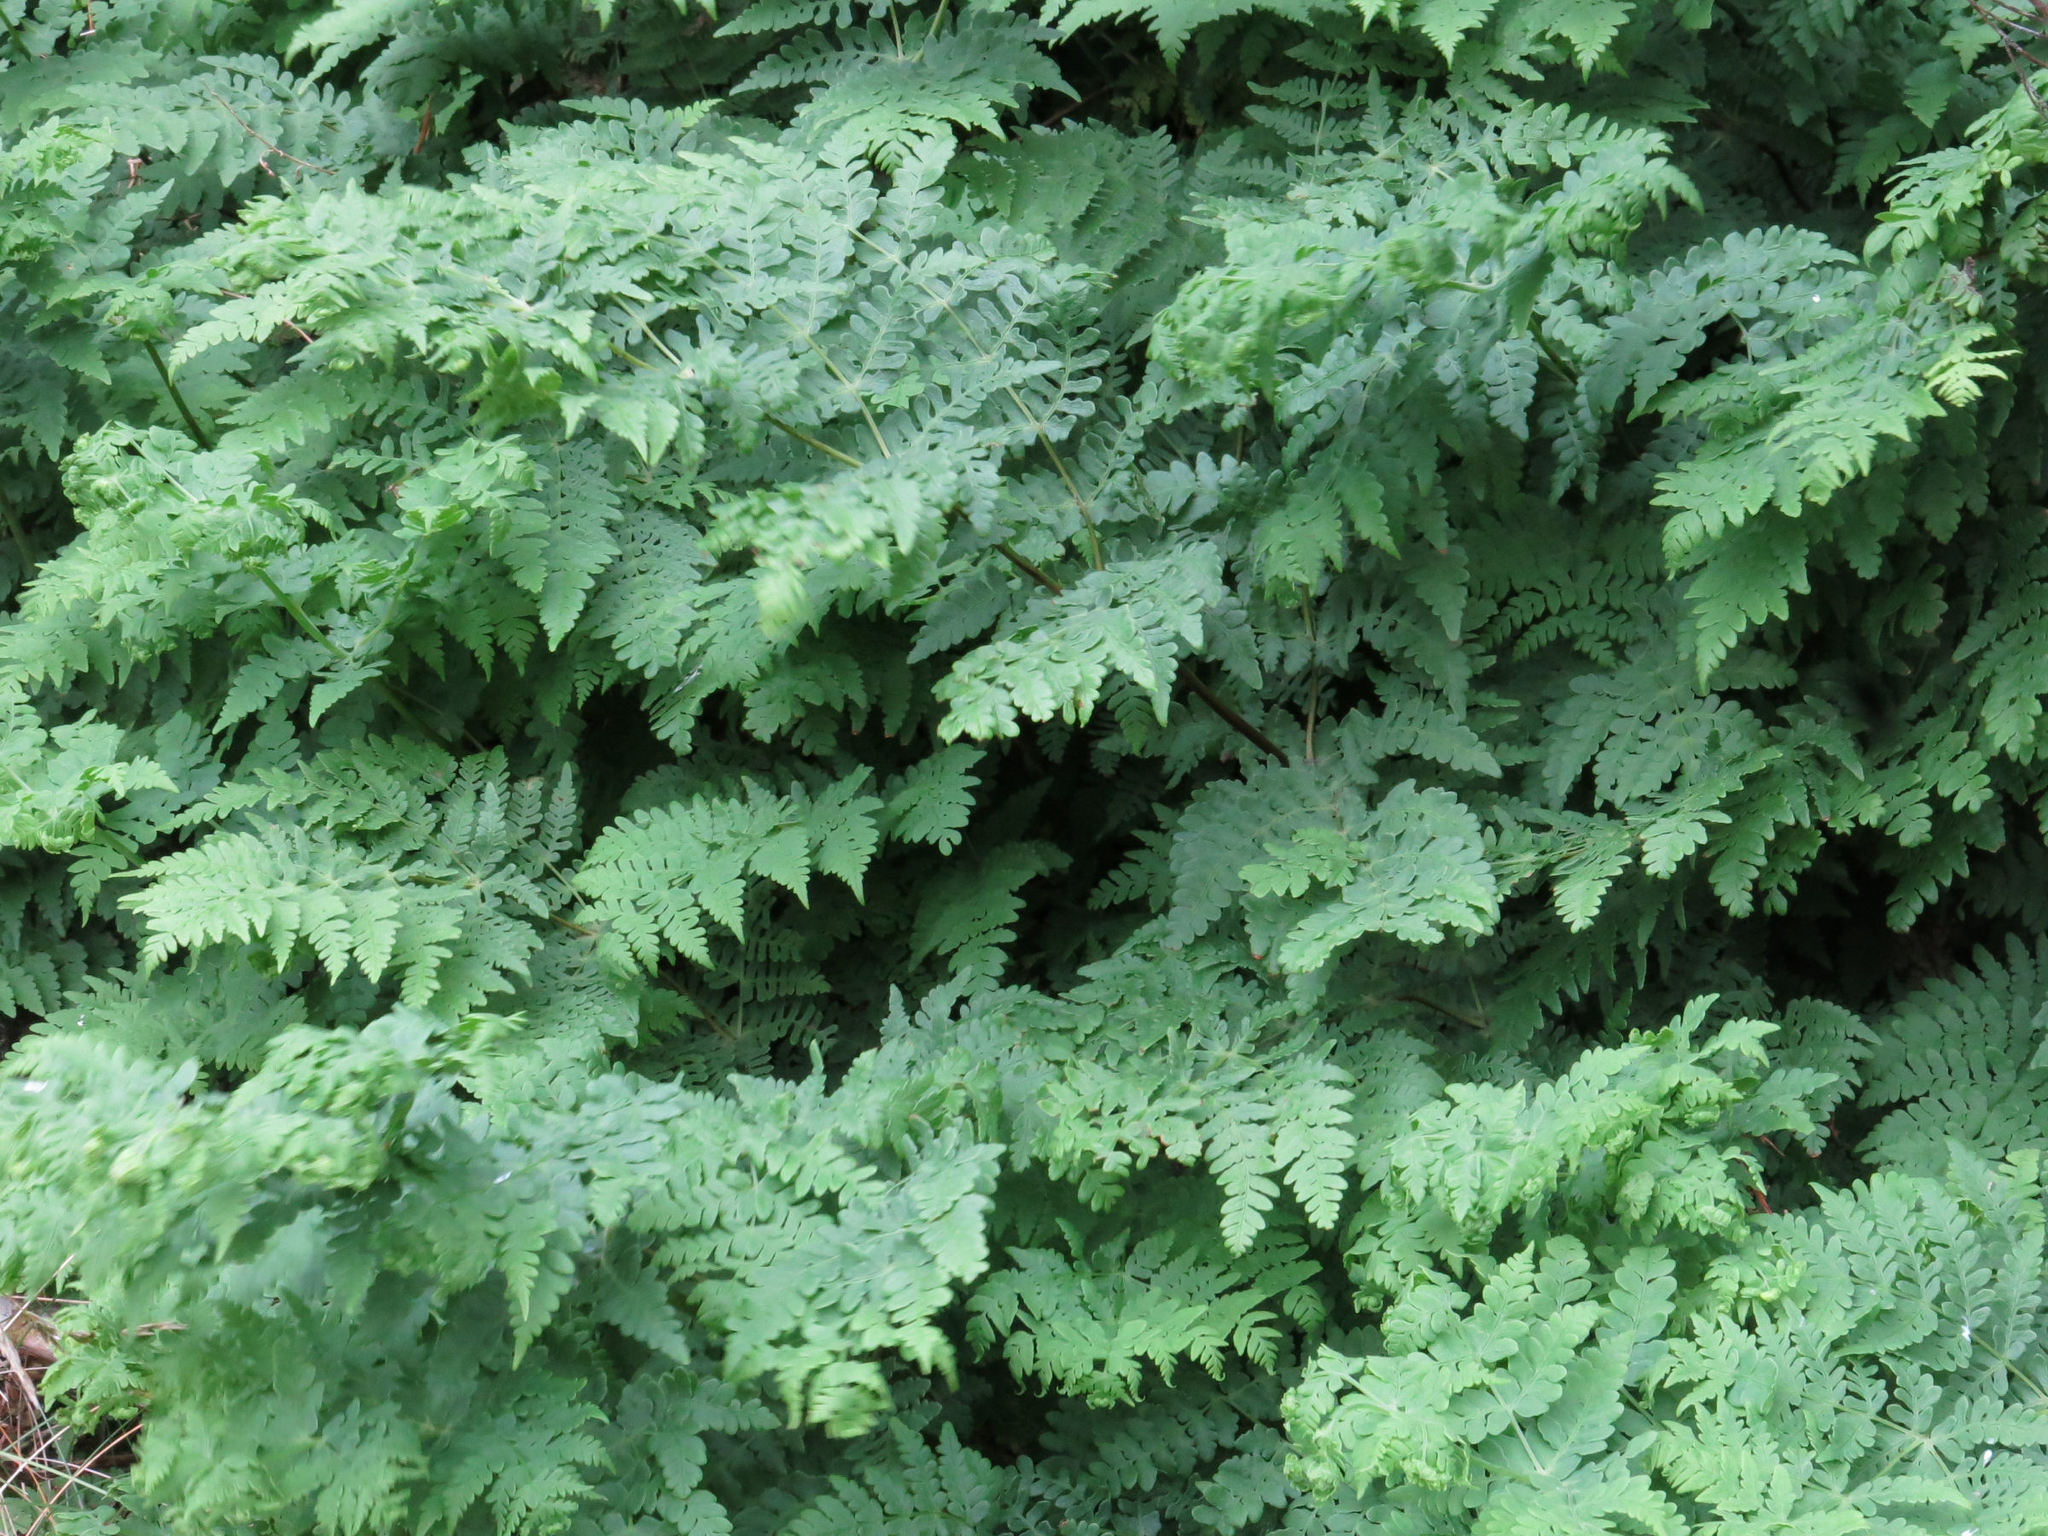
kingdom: Plantae
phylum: Tracheophyta
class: Polypodiopsida
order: Polypodiales
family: Dennstaedtiaceae
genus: Histiopteris
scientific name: Histiopteris incisa
